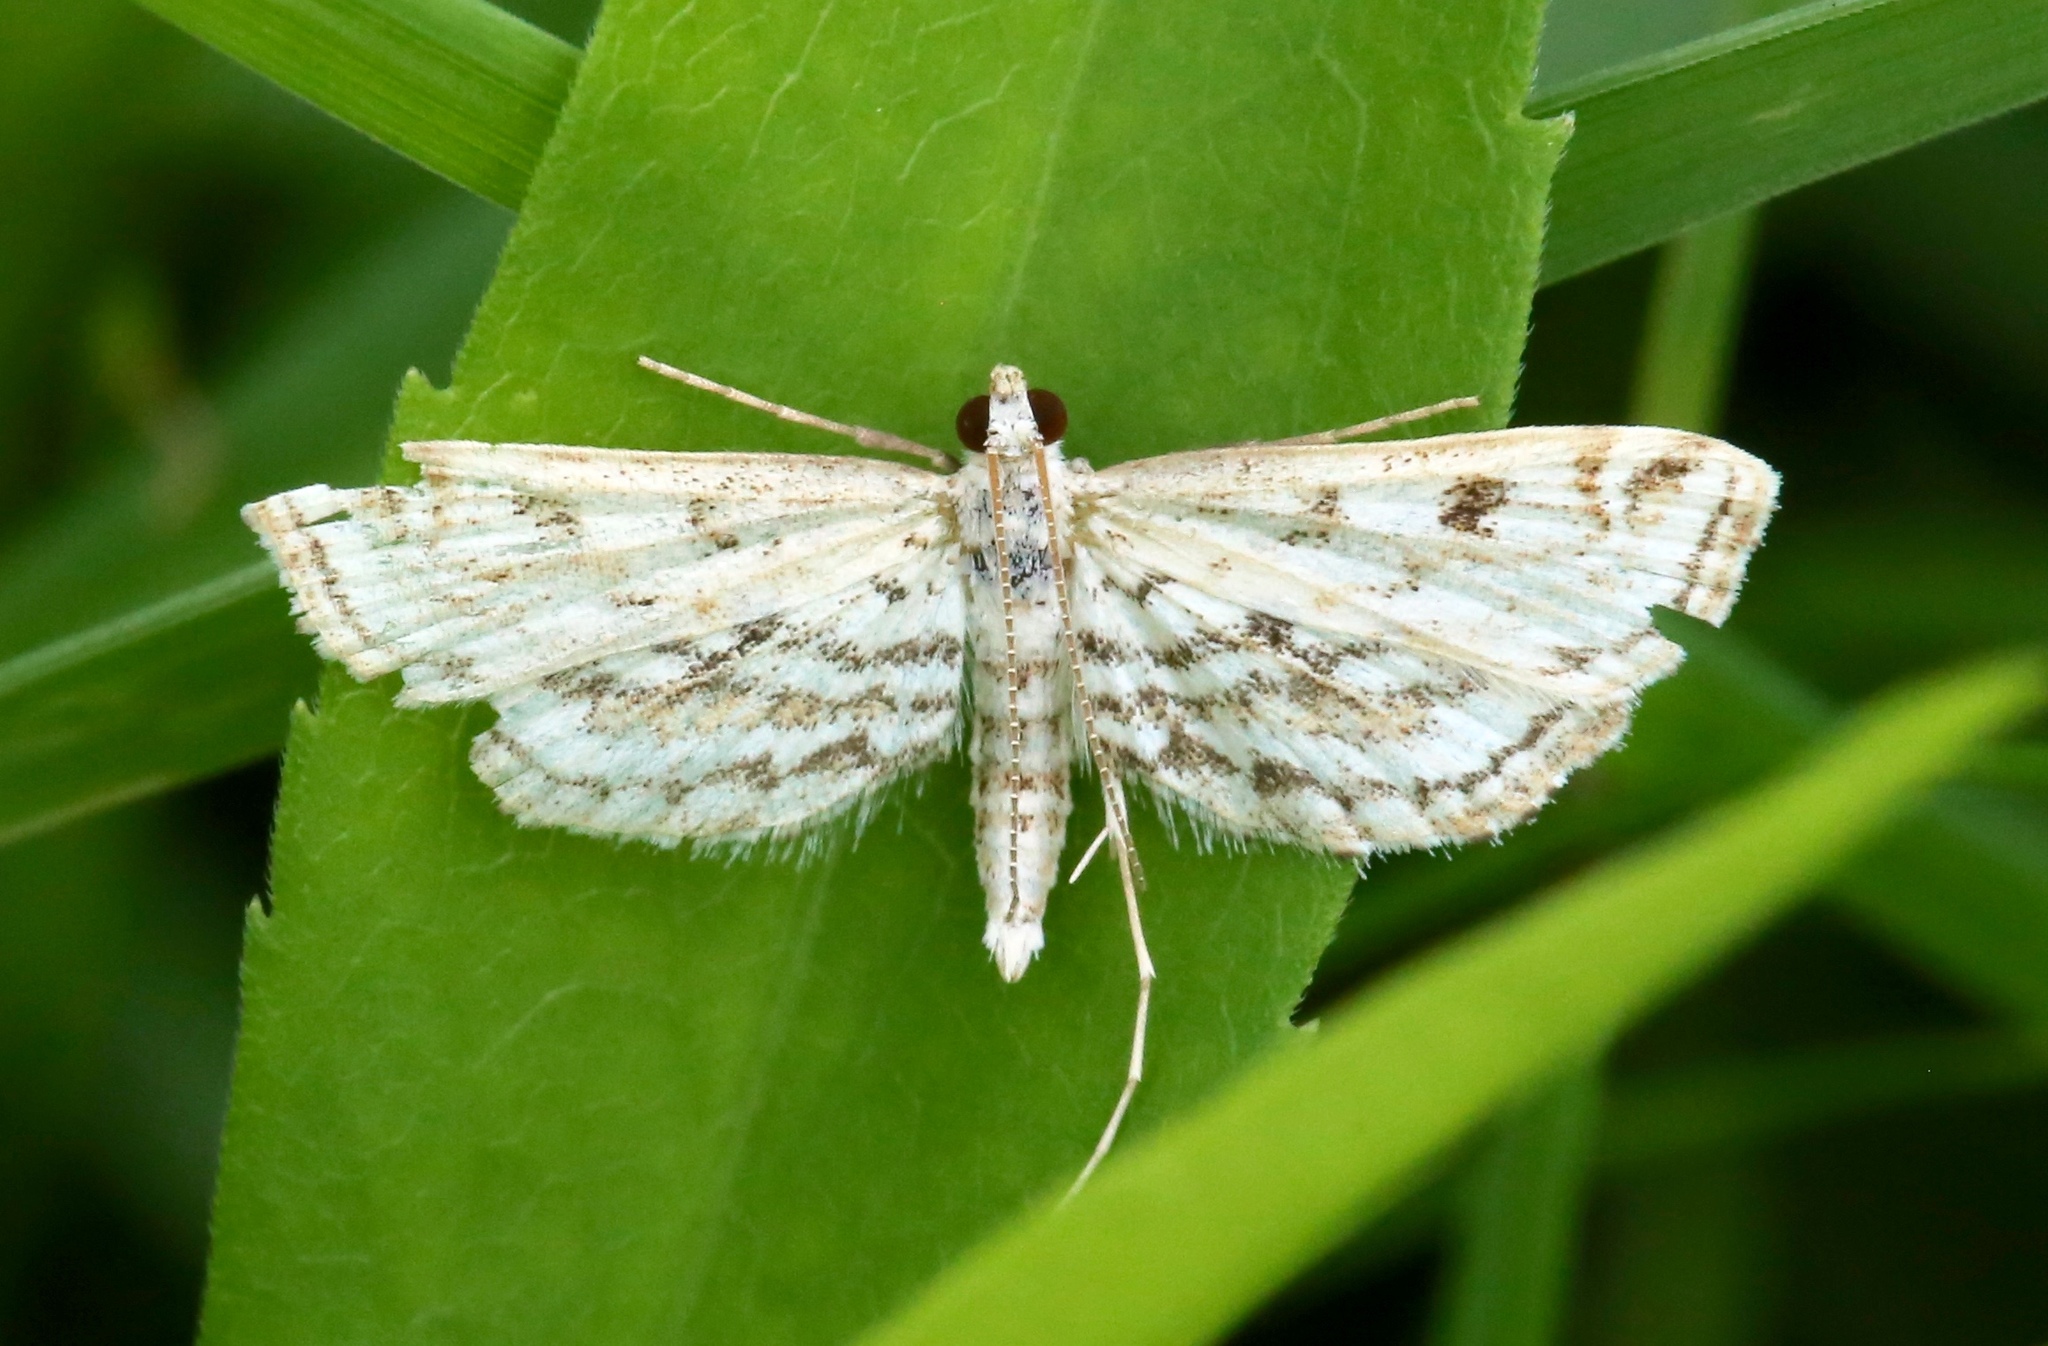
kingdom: Animalia
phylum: Arthropoda
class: Insecta
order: Lepidoptera
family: Crambidae
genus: Parapoynx
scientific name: Parapoynx allionealis
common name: Bladderwort casemaker
